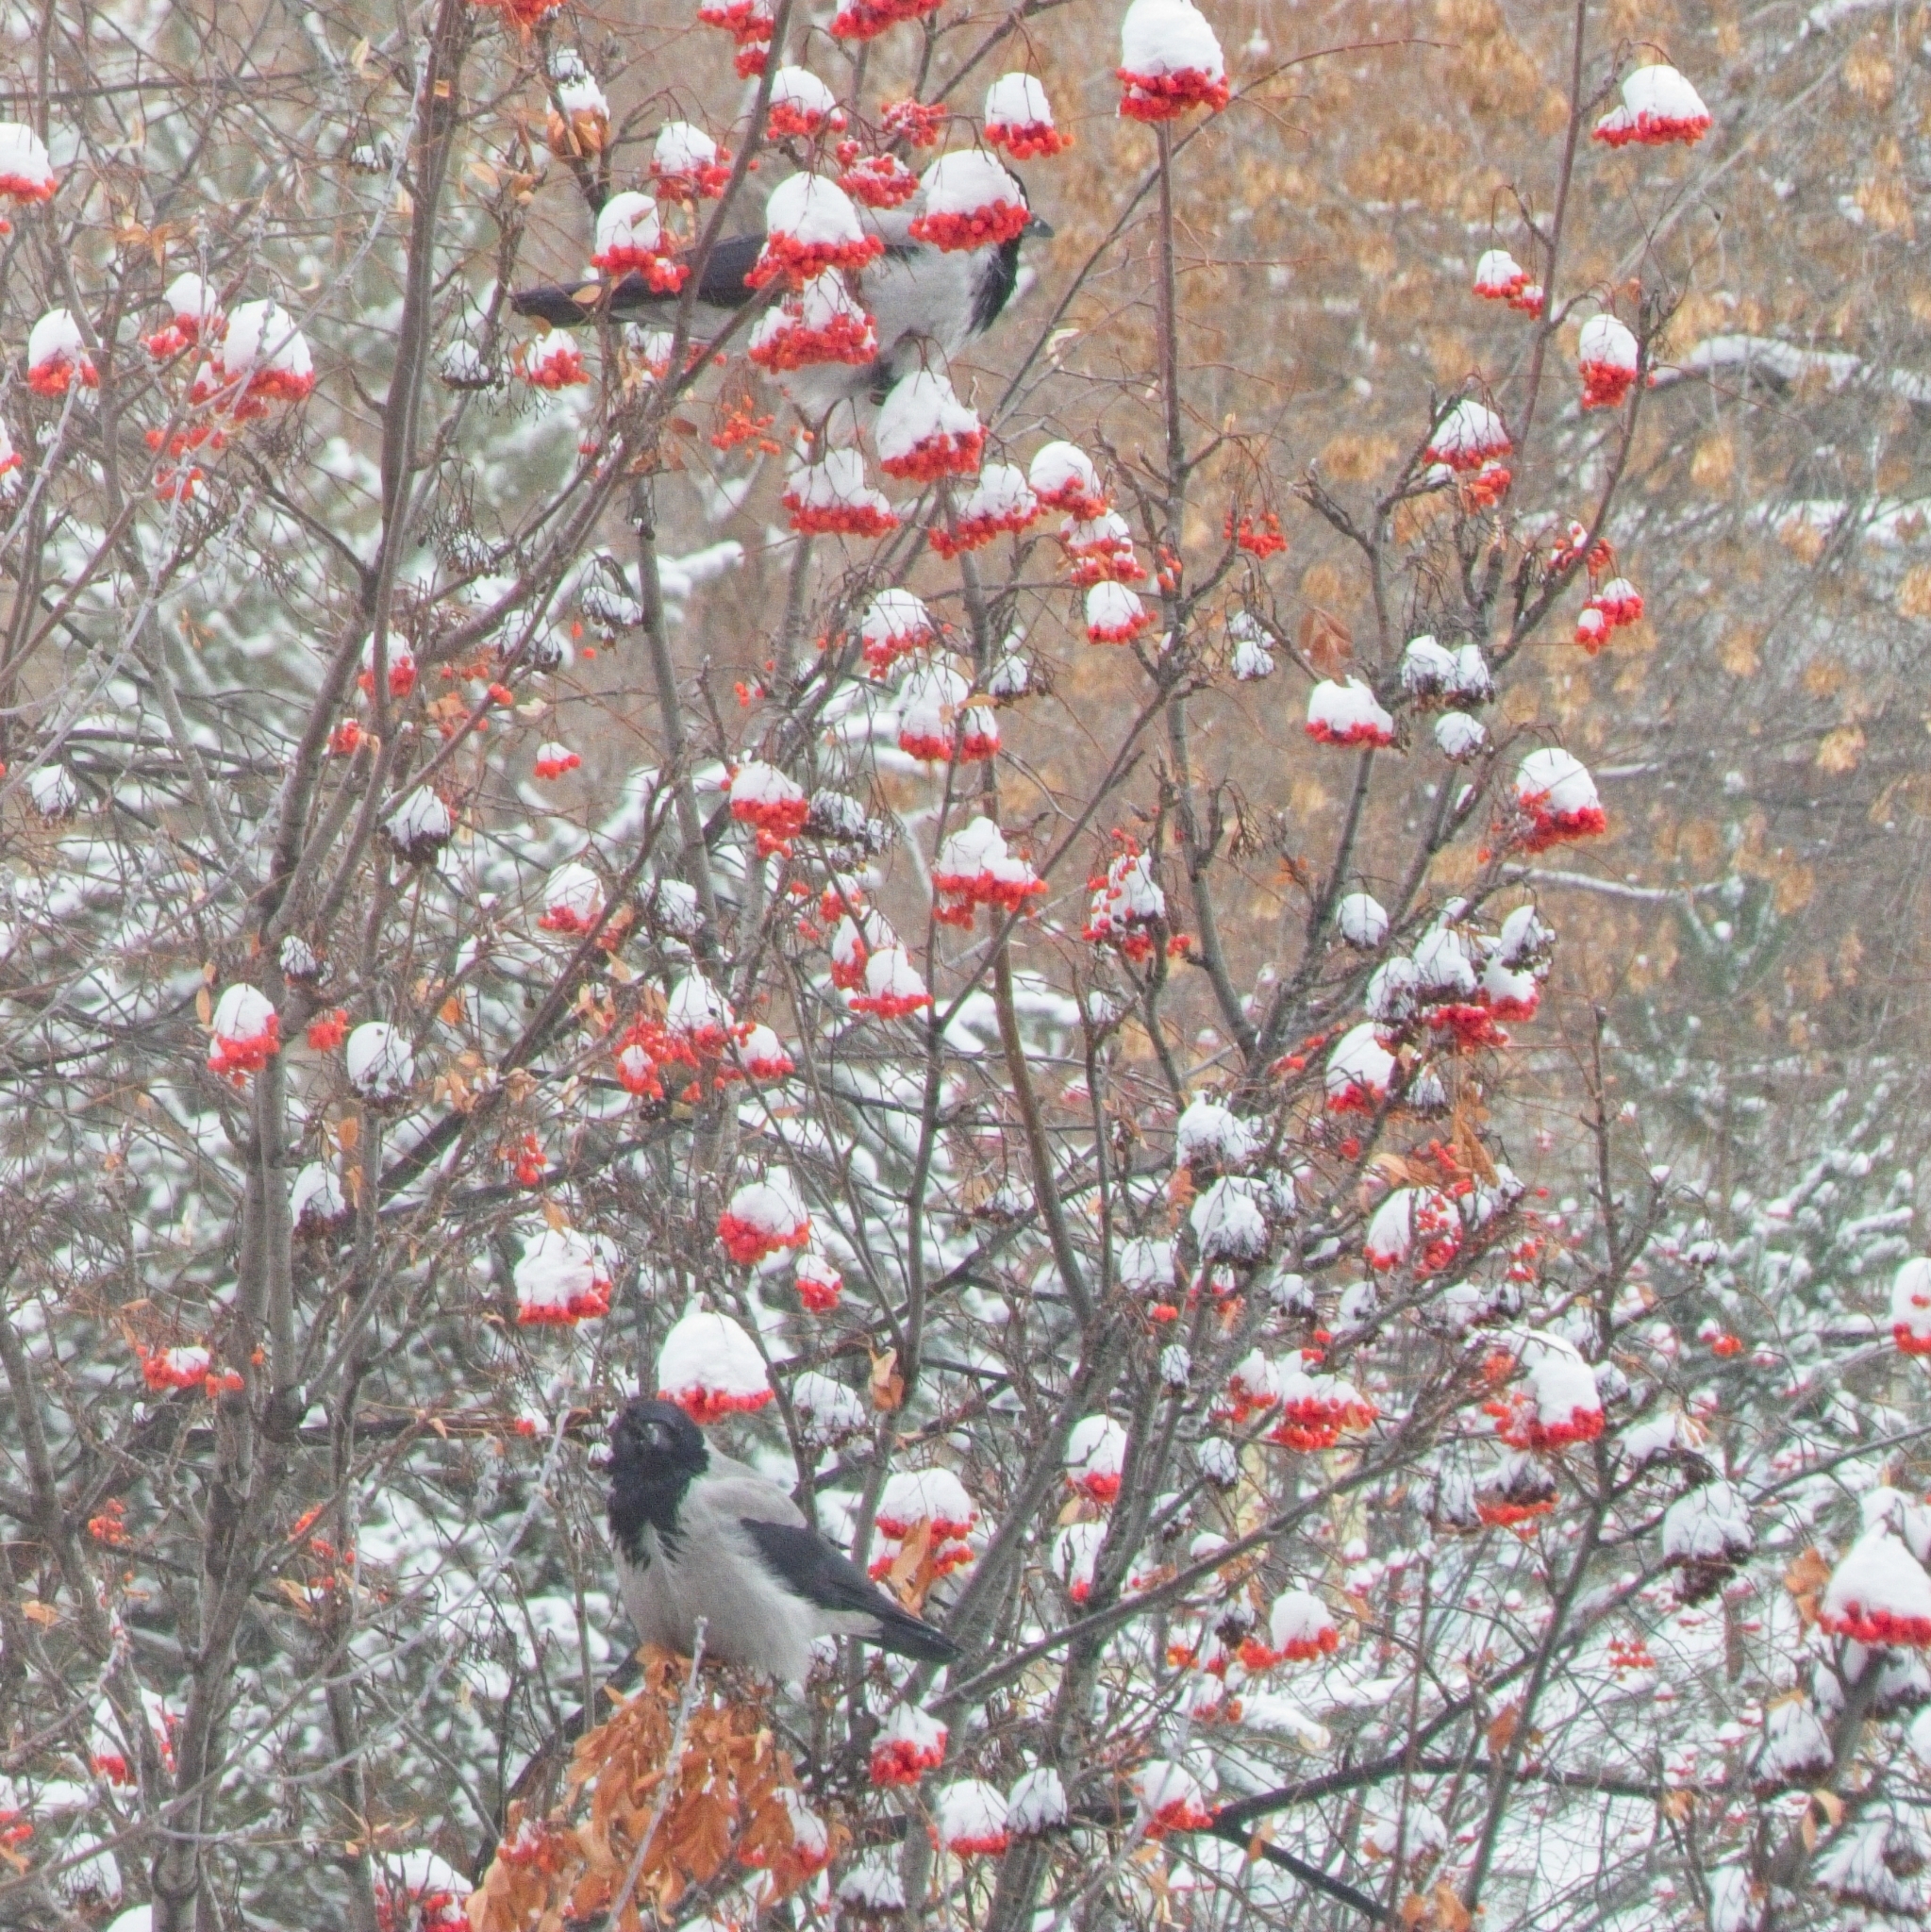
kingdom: Animalia
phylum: Chordata
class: Aves
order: Passeriformes
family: Corvidae
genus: Corvus
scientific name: Corvus cornix
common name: Hooded crow
